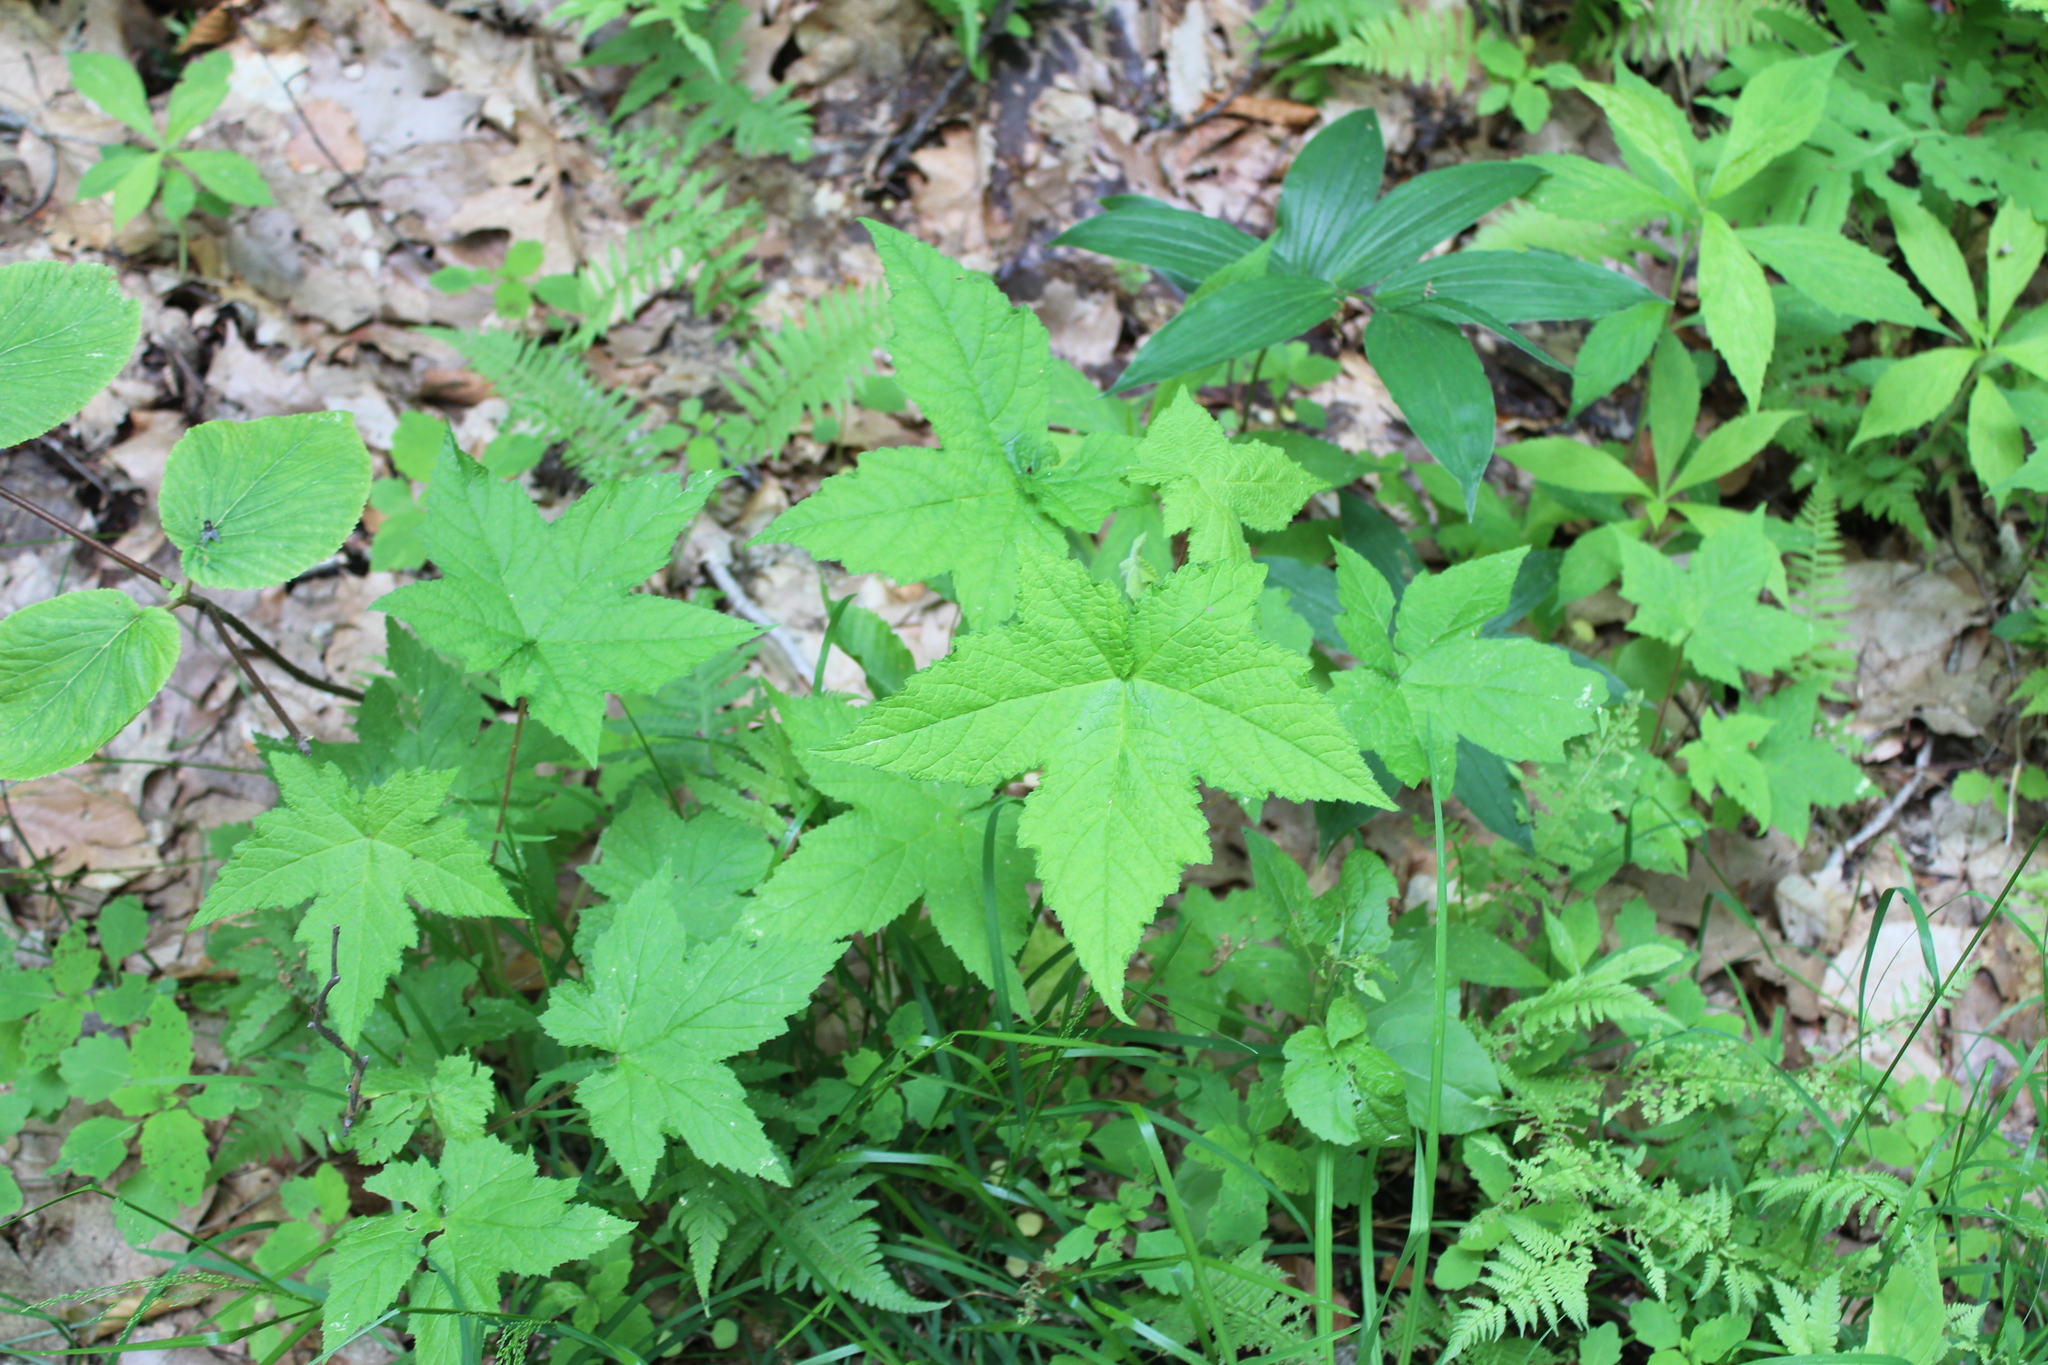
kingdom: Plantae
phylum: Tracheophyta
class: Magnoliopsida
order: Rosales
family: Rosaceae
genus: Rubus
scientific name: Rubus odoratus
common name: Purple-flowered raspberry
